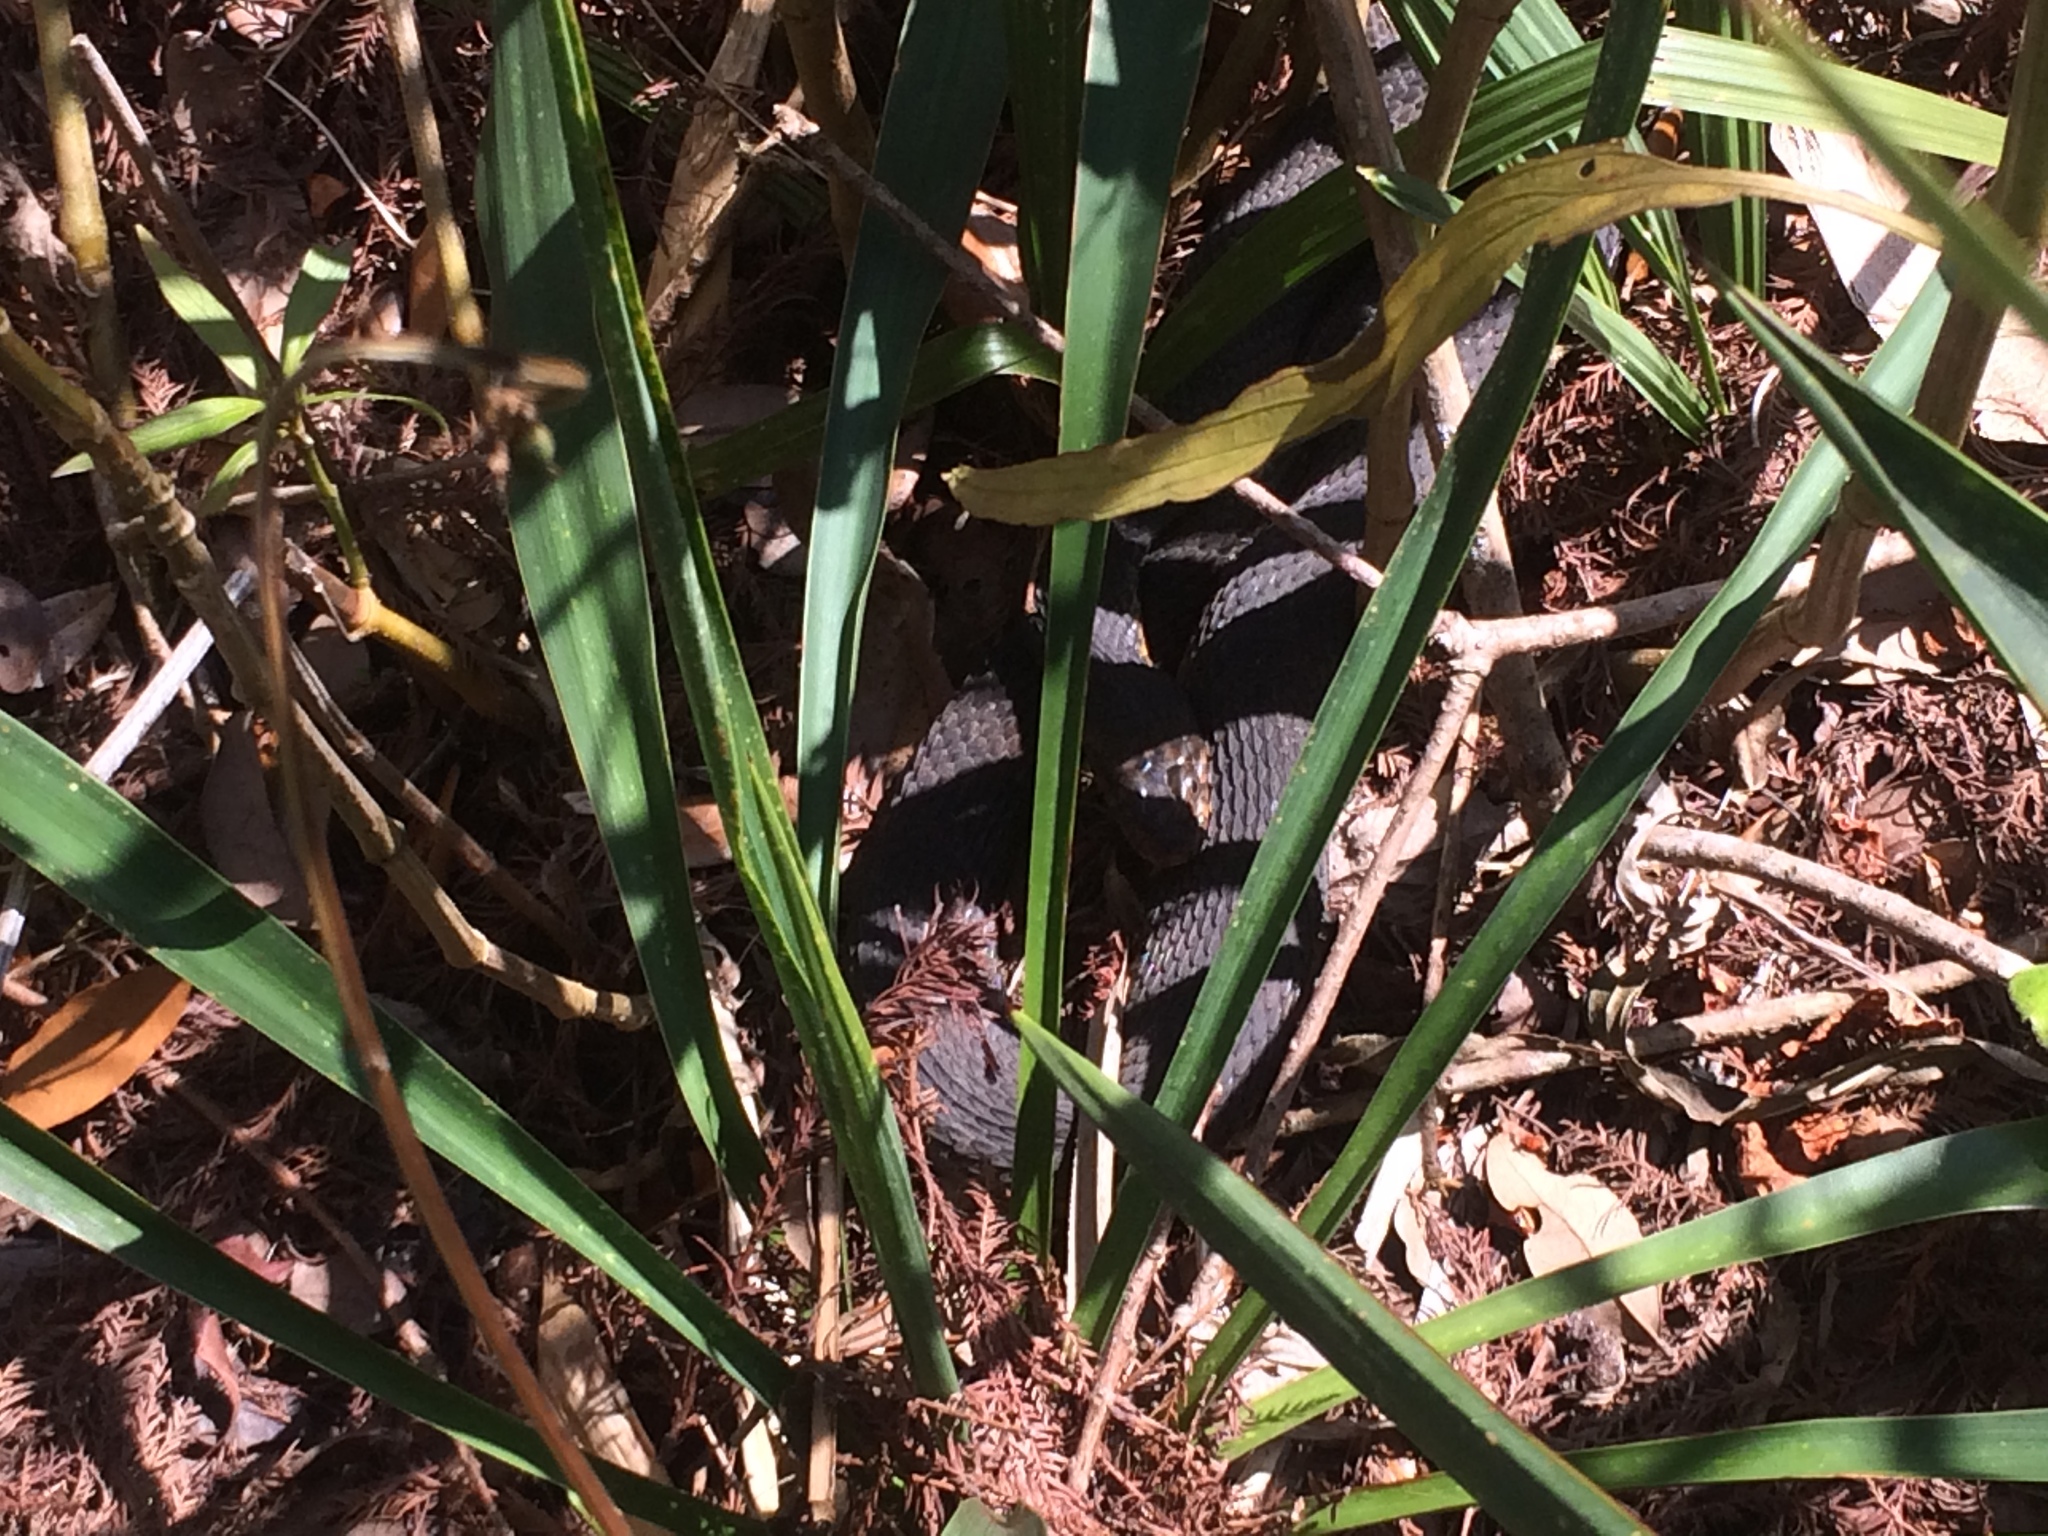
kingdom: Animalia
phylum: Chordata
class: Squamata
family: Colubridae
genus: Nerodia
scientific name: Nerodia fasciata
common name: Southern water snake
